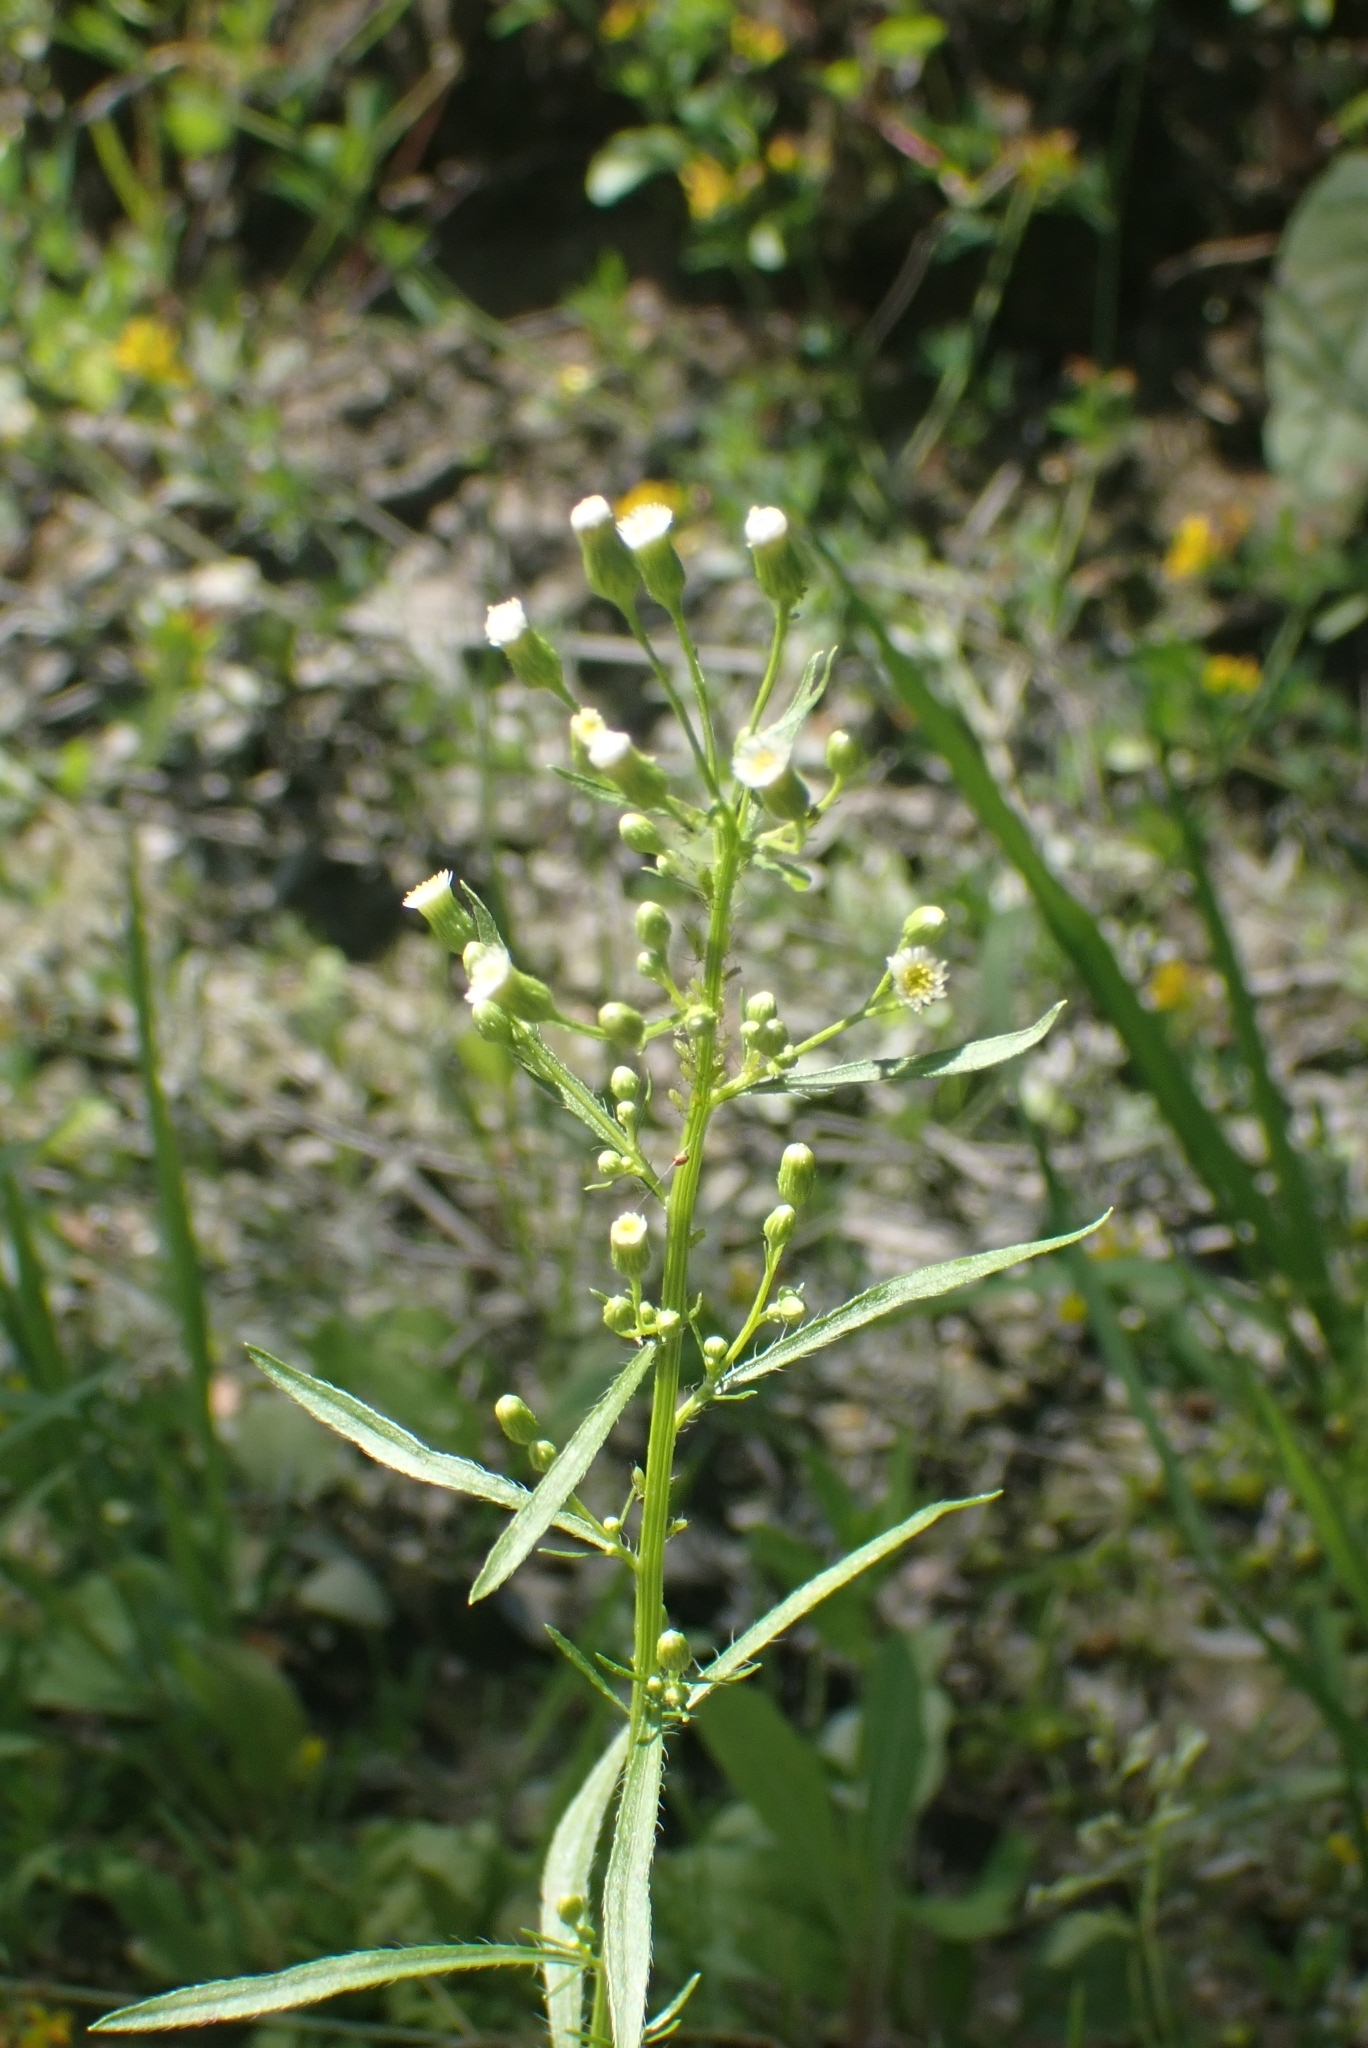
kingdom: Plantae
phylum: Tracheophyta
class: Magnoliopsida
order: Asterales
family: Asteraceae
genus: Erigeron
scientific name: Erigeron canadensis
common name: Canadian fleabane
